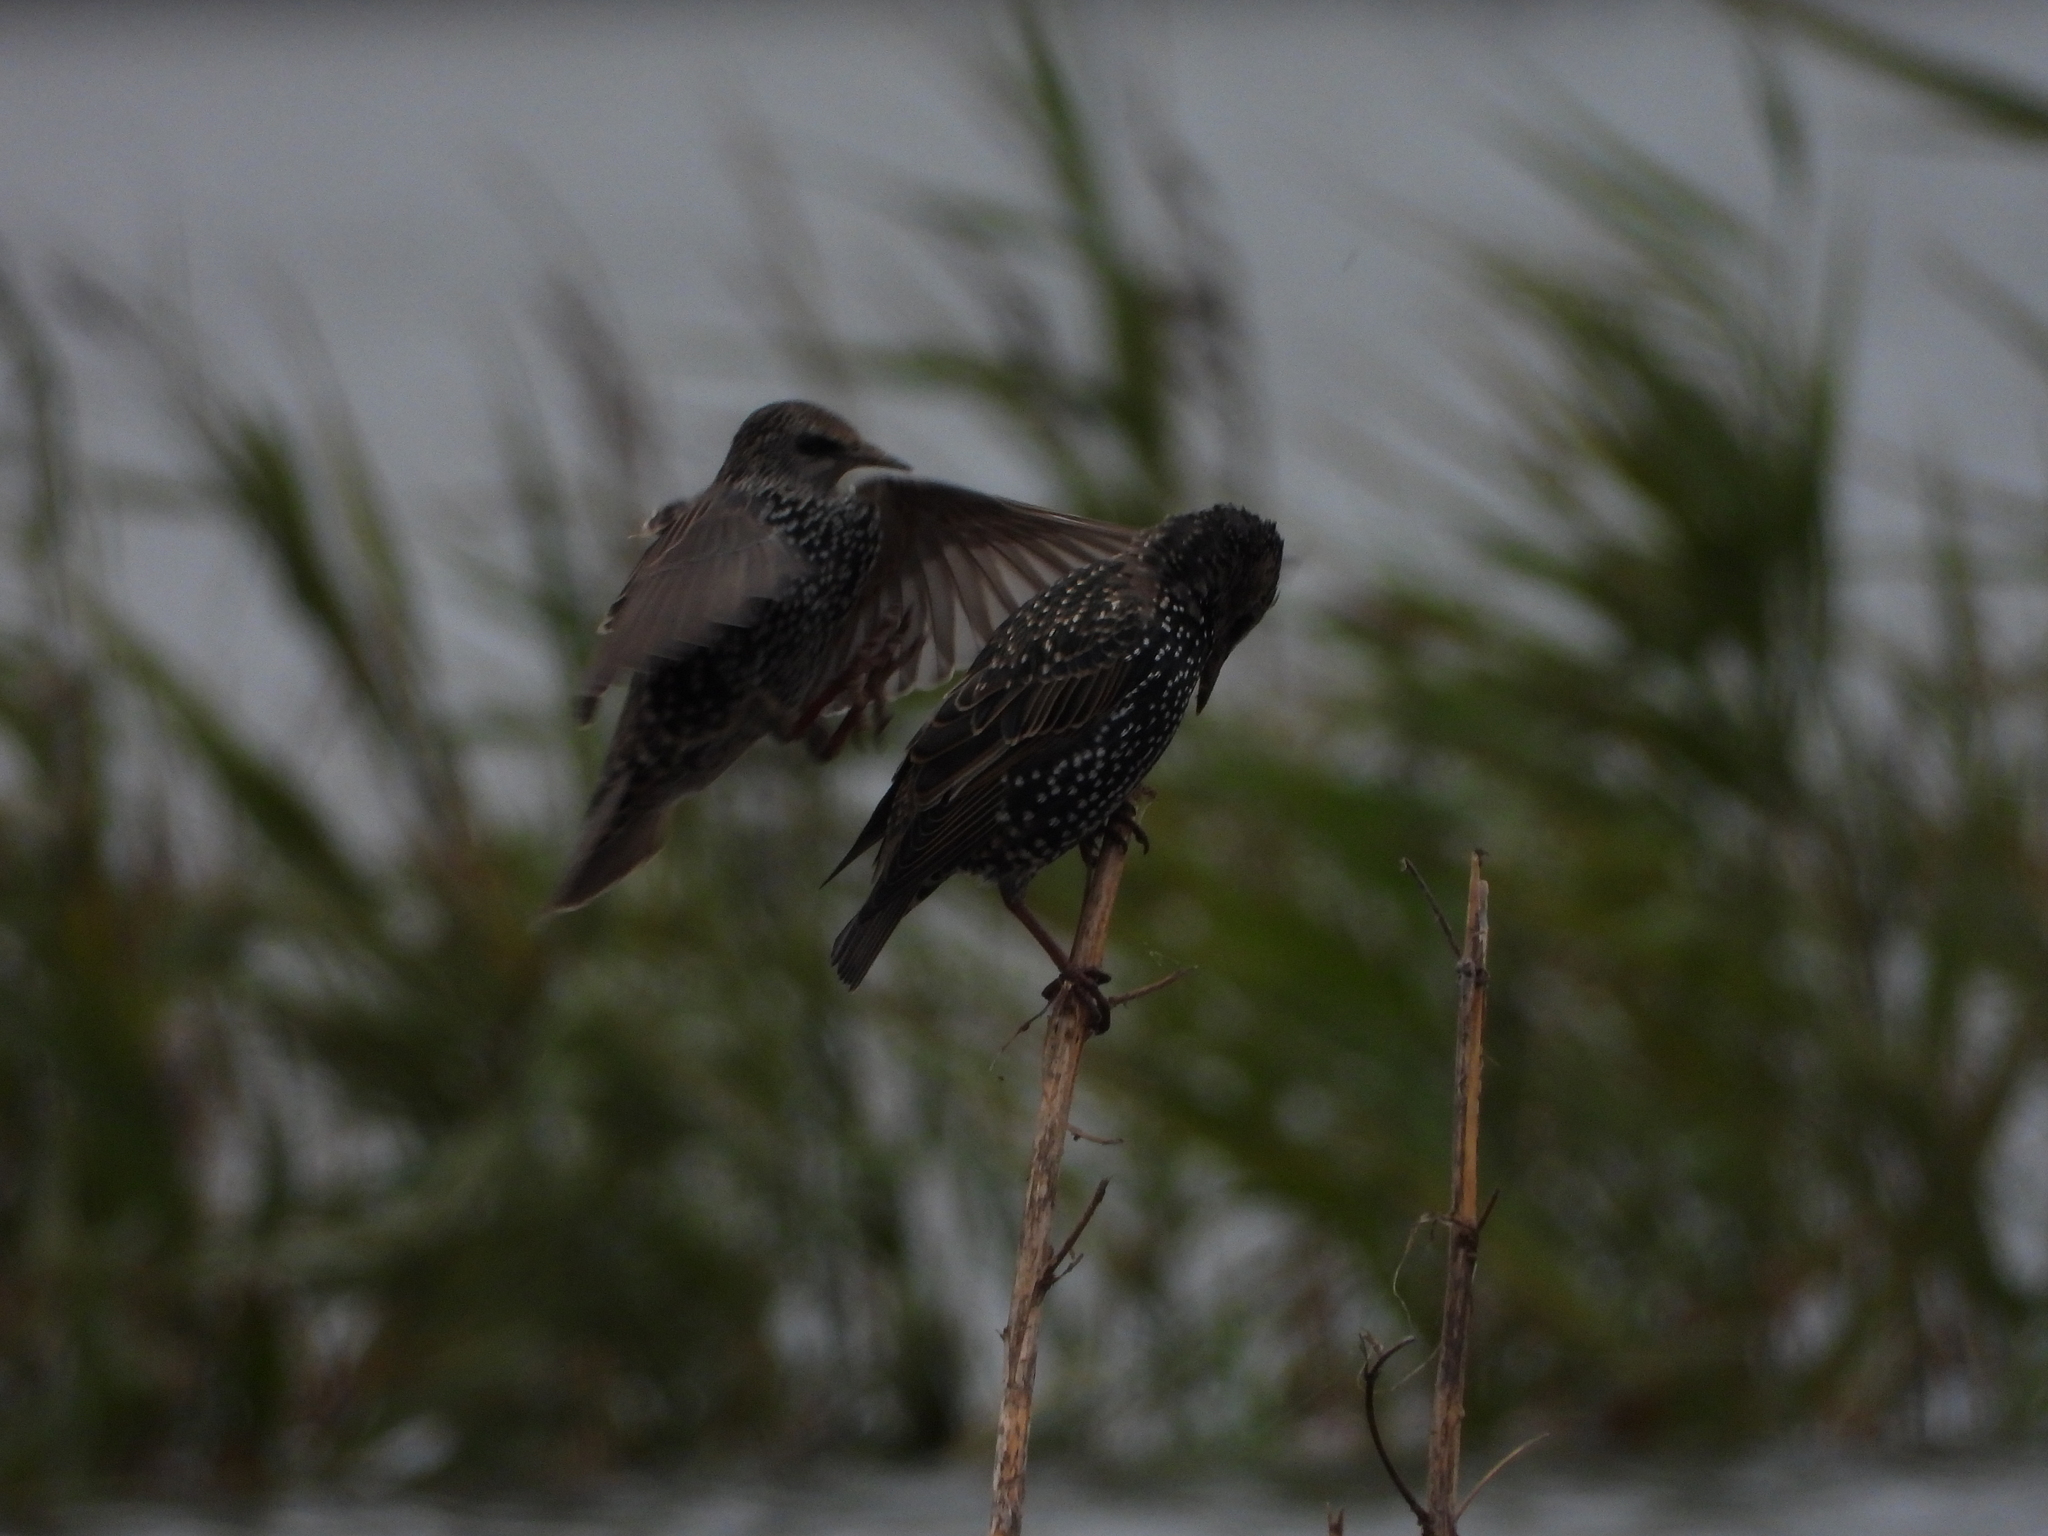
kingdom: Animalia
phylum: Chordata
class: Aves
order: Passeriformes
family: Sturnidae
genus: Sturnus
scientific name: Sturnus vulgaris
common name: Common starling
